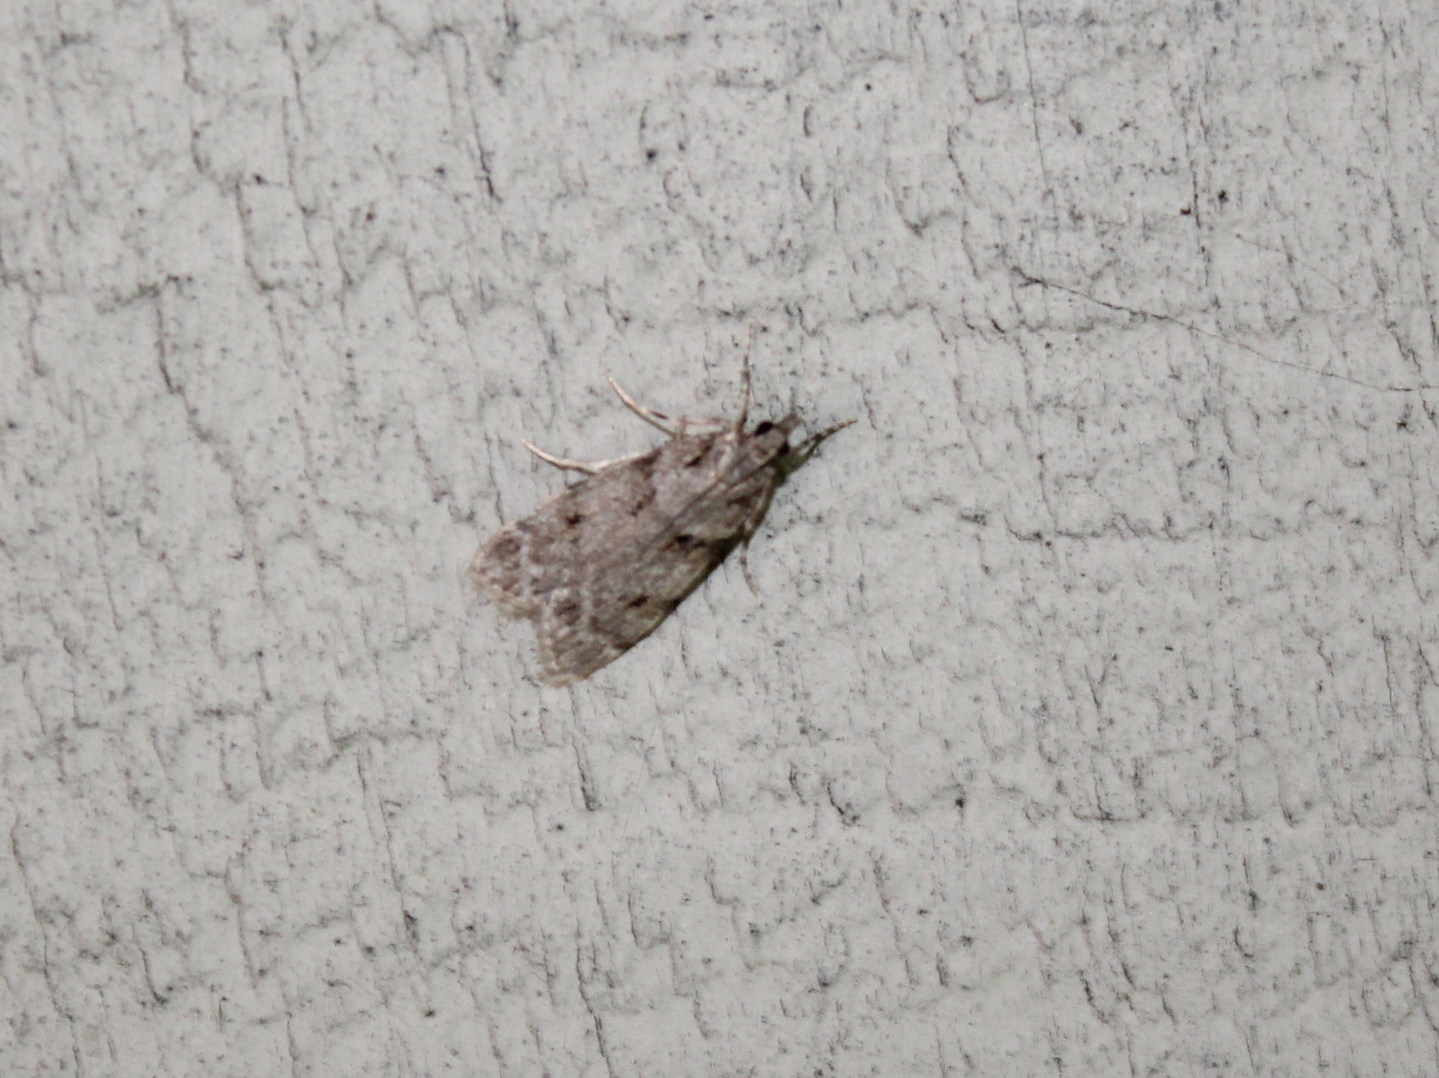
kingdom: Animalia
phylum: Arthropoda
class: Insecta
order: Lepidoptera
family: Crambidae
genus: Scoparia
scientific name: Scoparia biplagialis
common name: Double-striped scoparia moth
